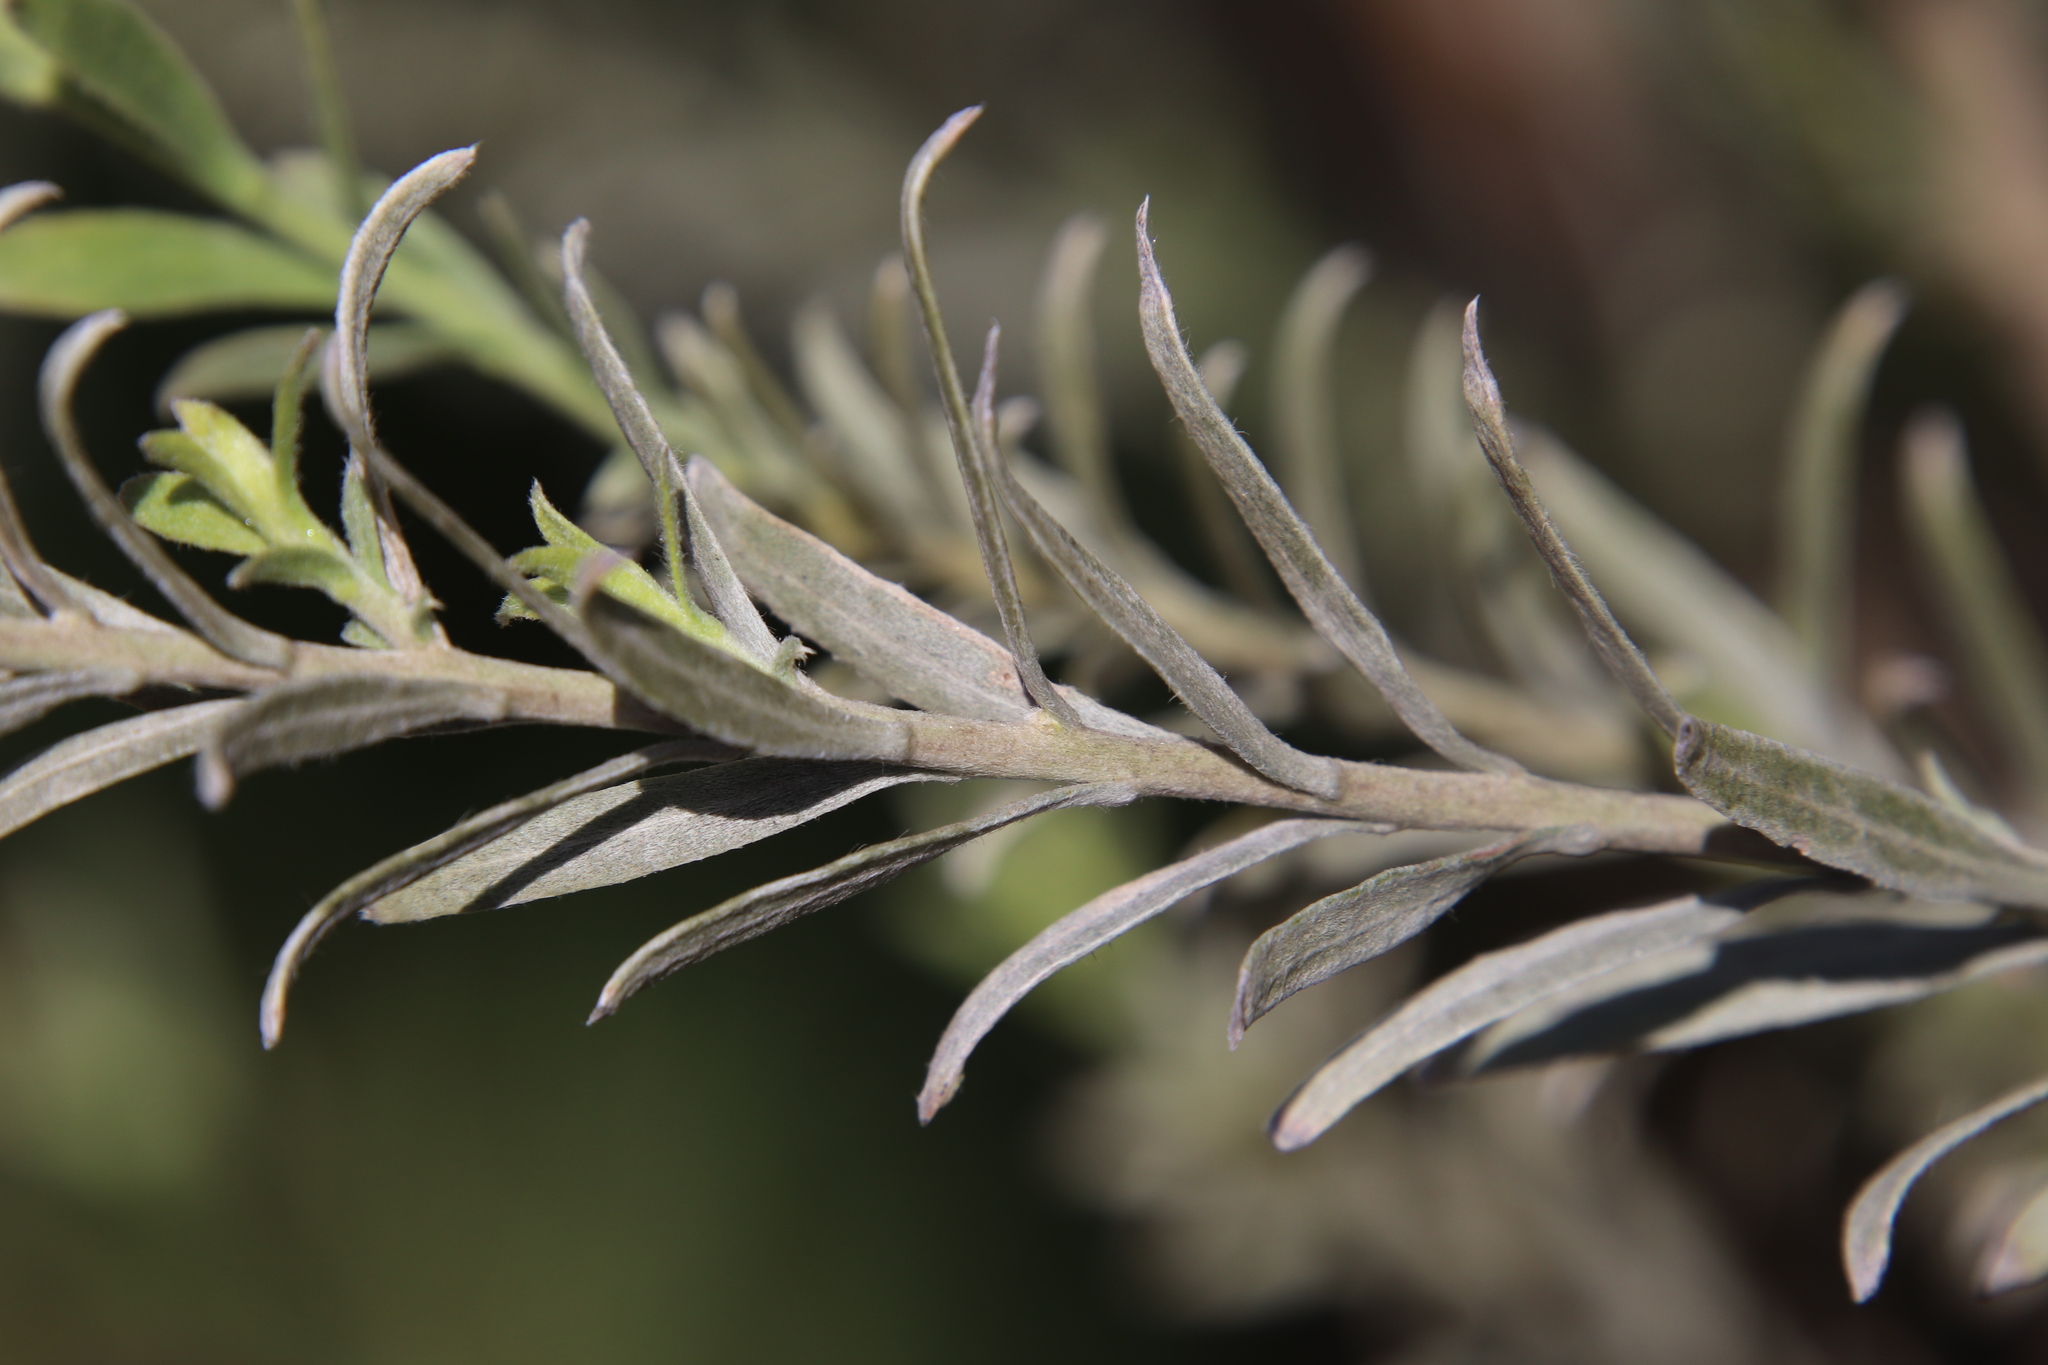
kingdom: Plantae
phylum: Tracheophyta
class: Magnoliopsida
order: Asterales
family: Asteraceae
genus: Pluchea
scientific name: Pluchea sericea
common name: Arrow-weed
